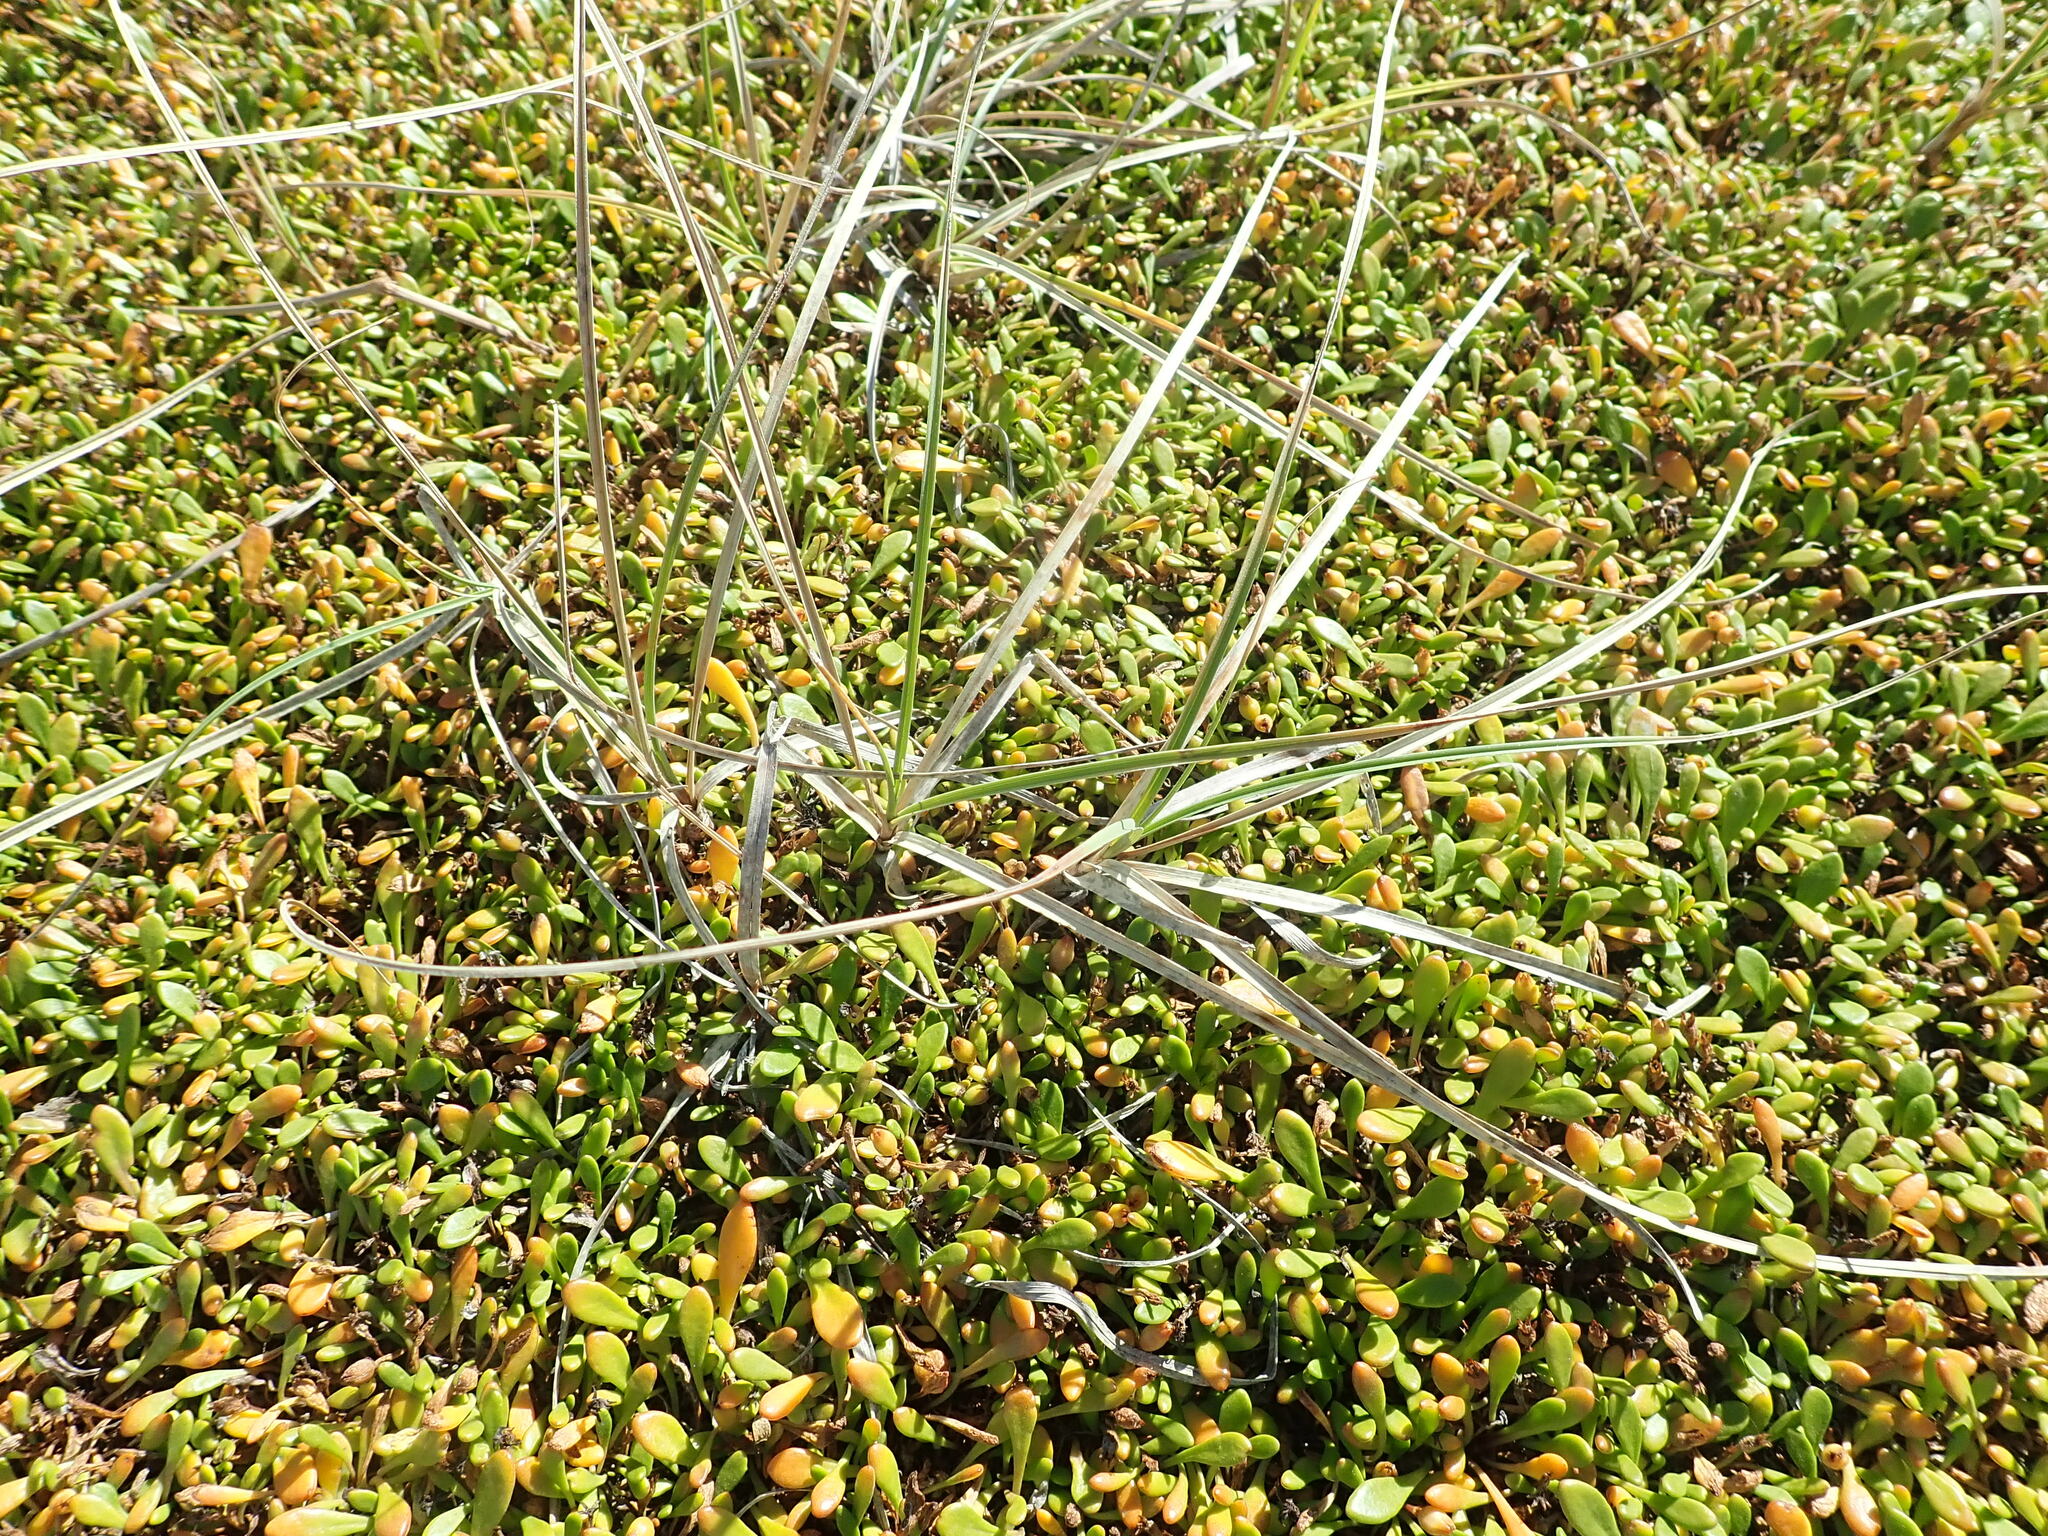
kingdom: Plantae
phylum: Tracheophyta
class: Liliopsida
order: Poales
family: Cyperaceae
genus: Carex
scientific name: Carex pumila
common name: Dwarf sedge
